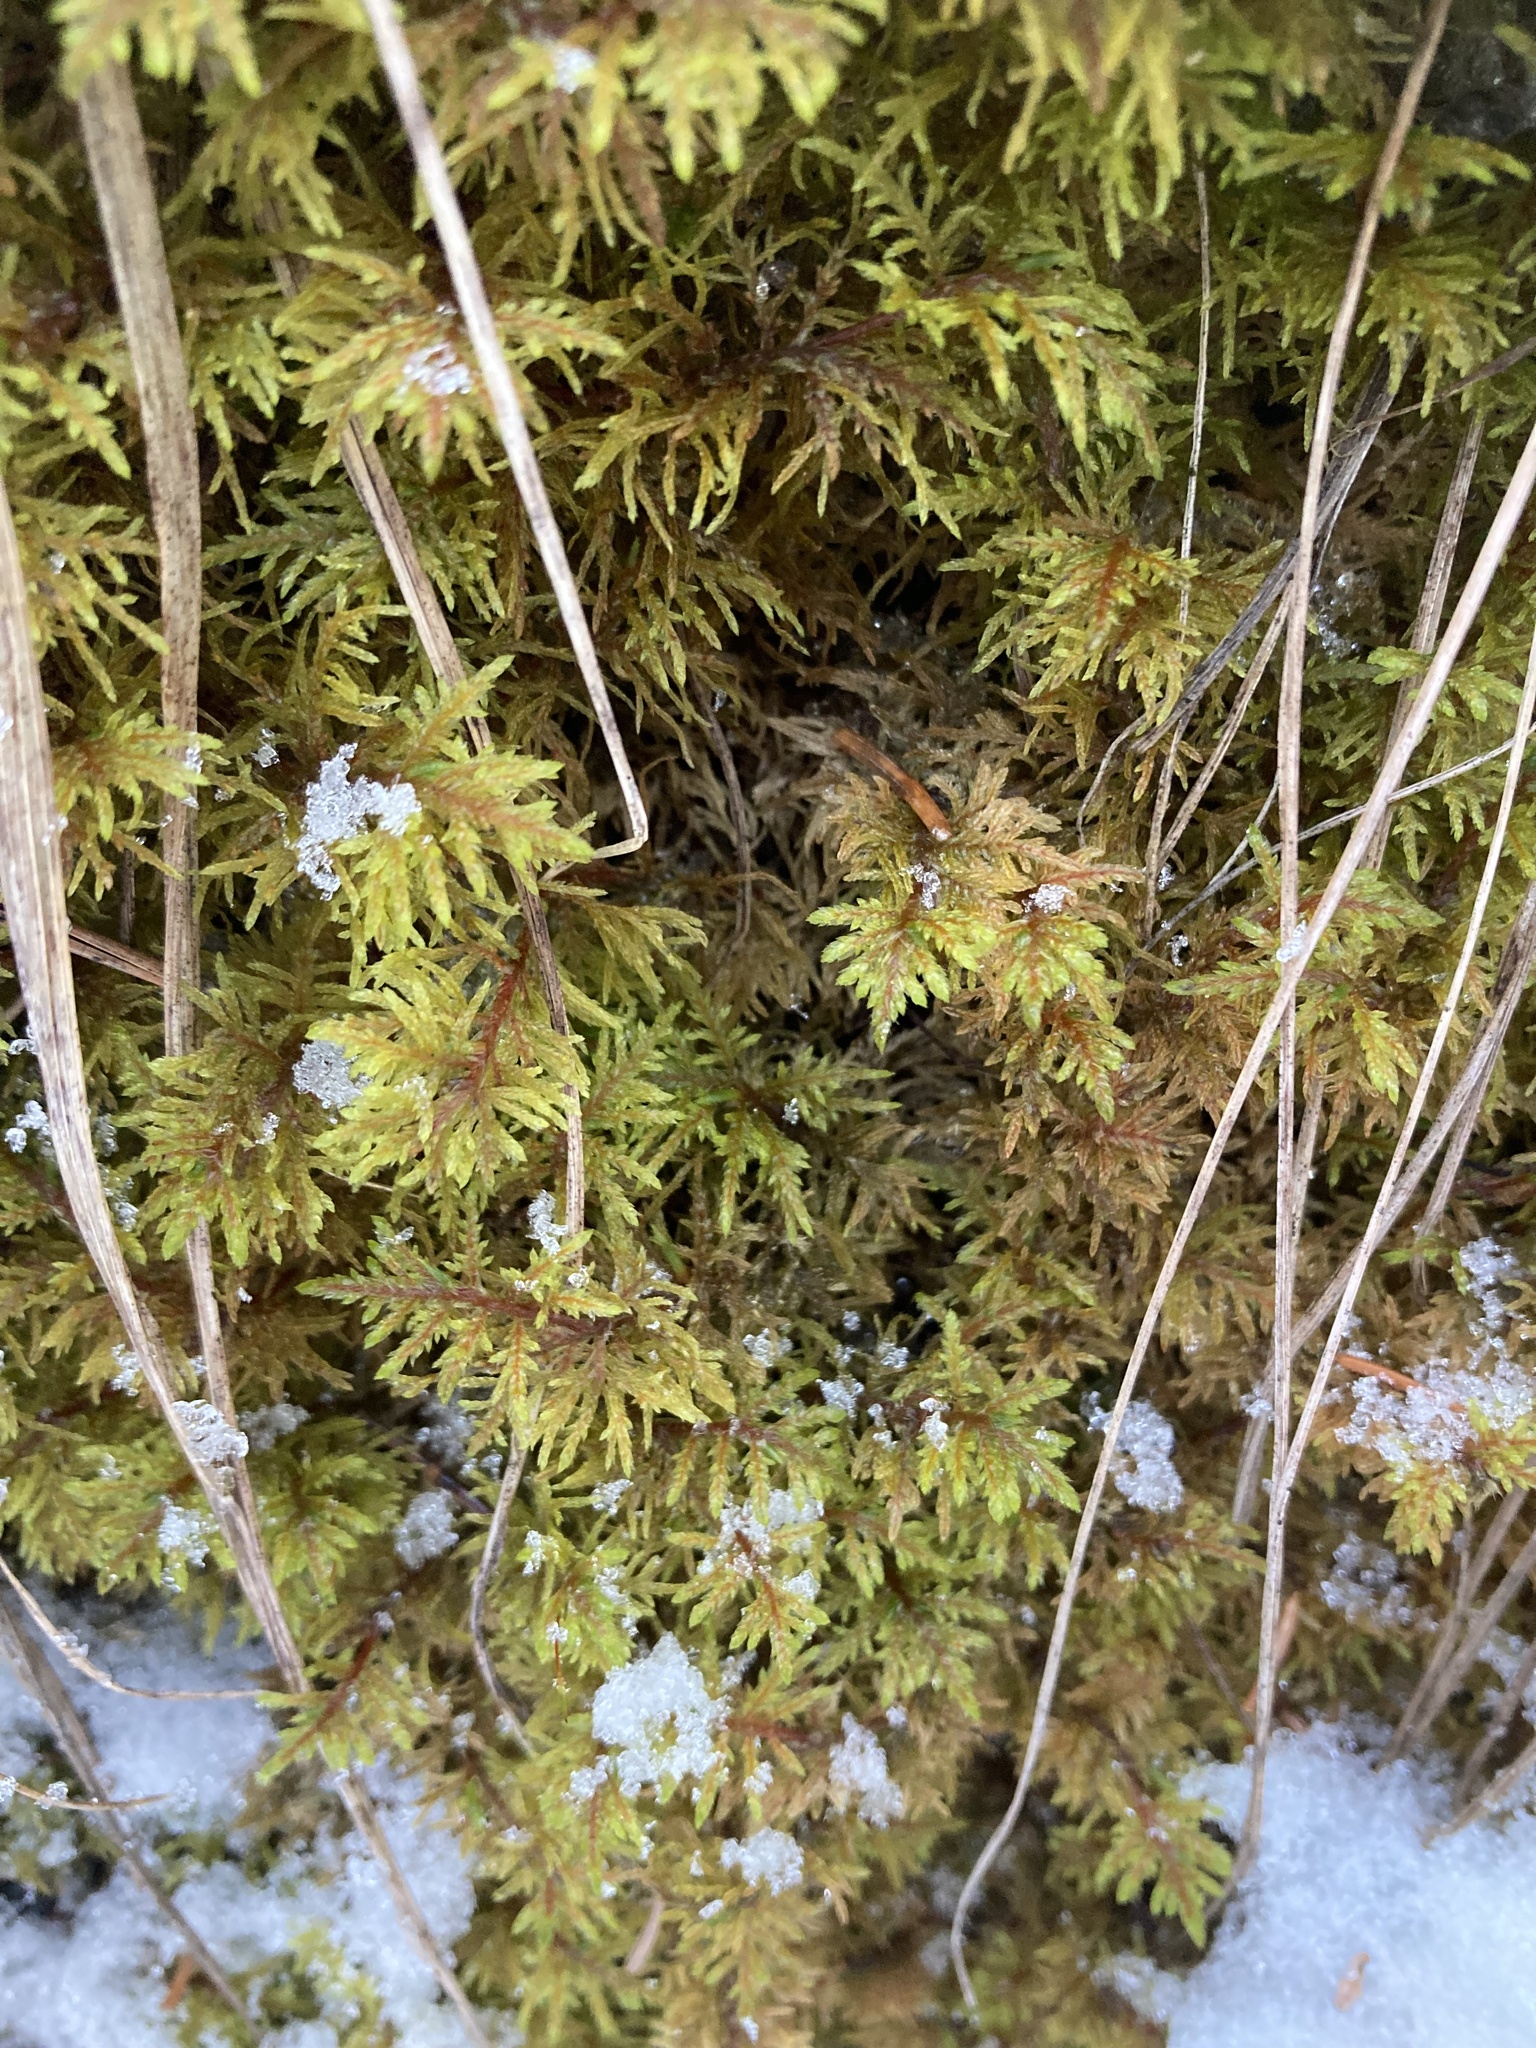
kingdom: Plantae
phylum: Bryophyta
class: Bryopsida
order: Hypnales
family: Hylocomiaceae
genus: Hylocomium
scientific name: Hylocomium splendens
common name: Stairstep moss
